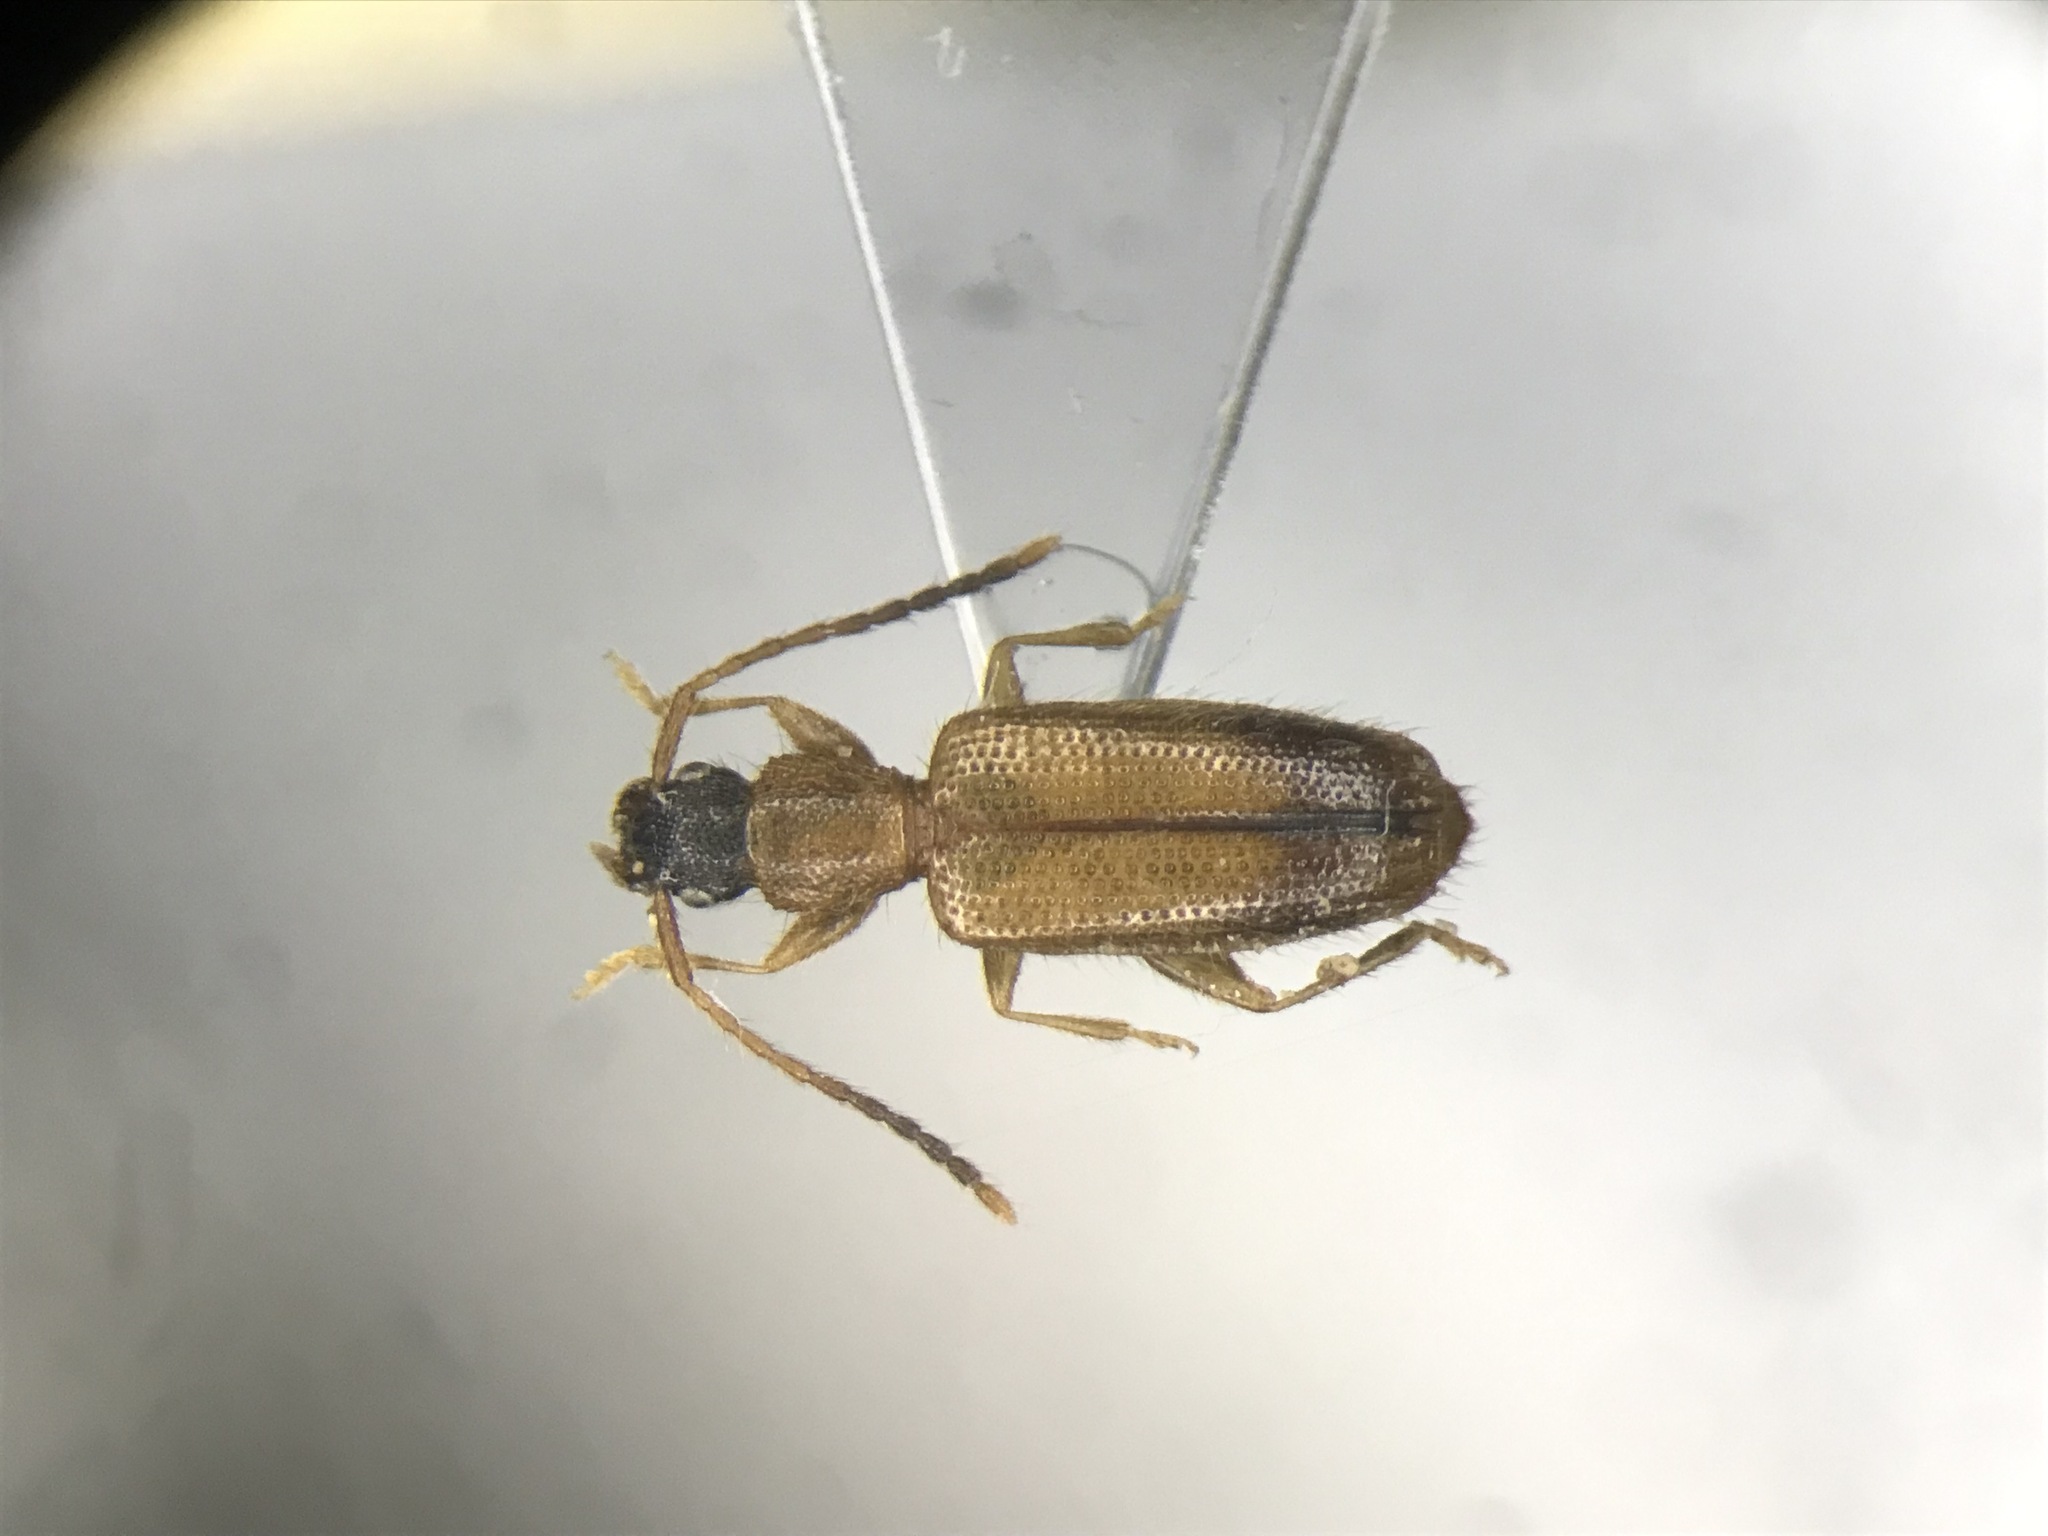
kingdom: Animalia
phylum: Arthropoda
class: Insecta
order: Coleoptera
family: Silvanidae
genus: Telephanus
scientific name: Telephanus velox
